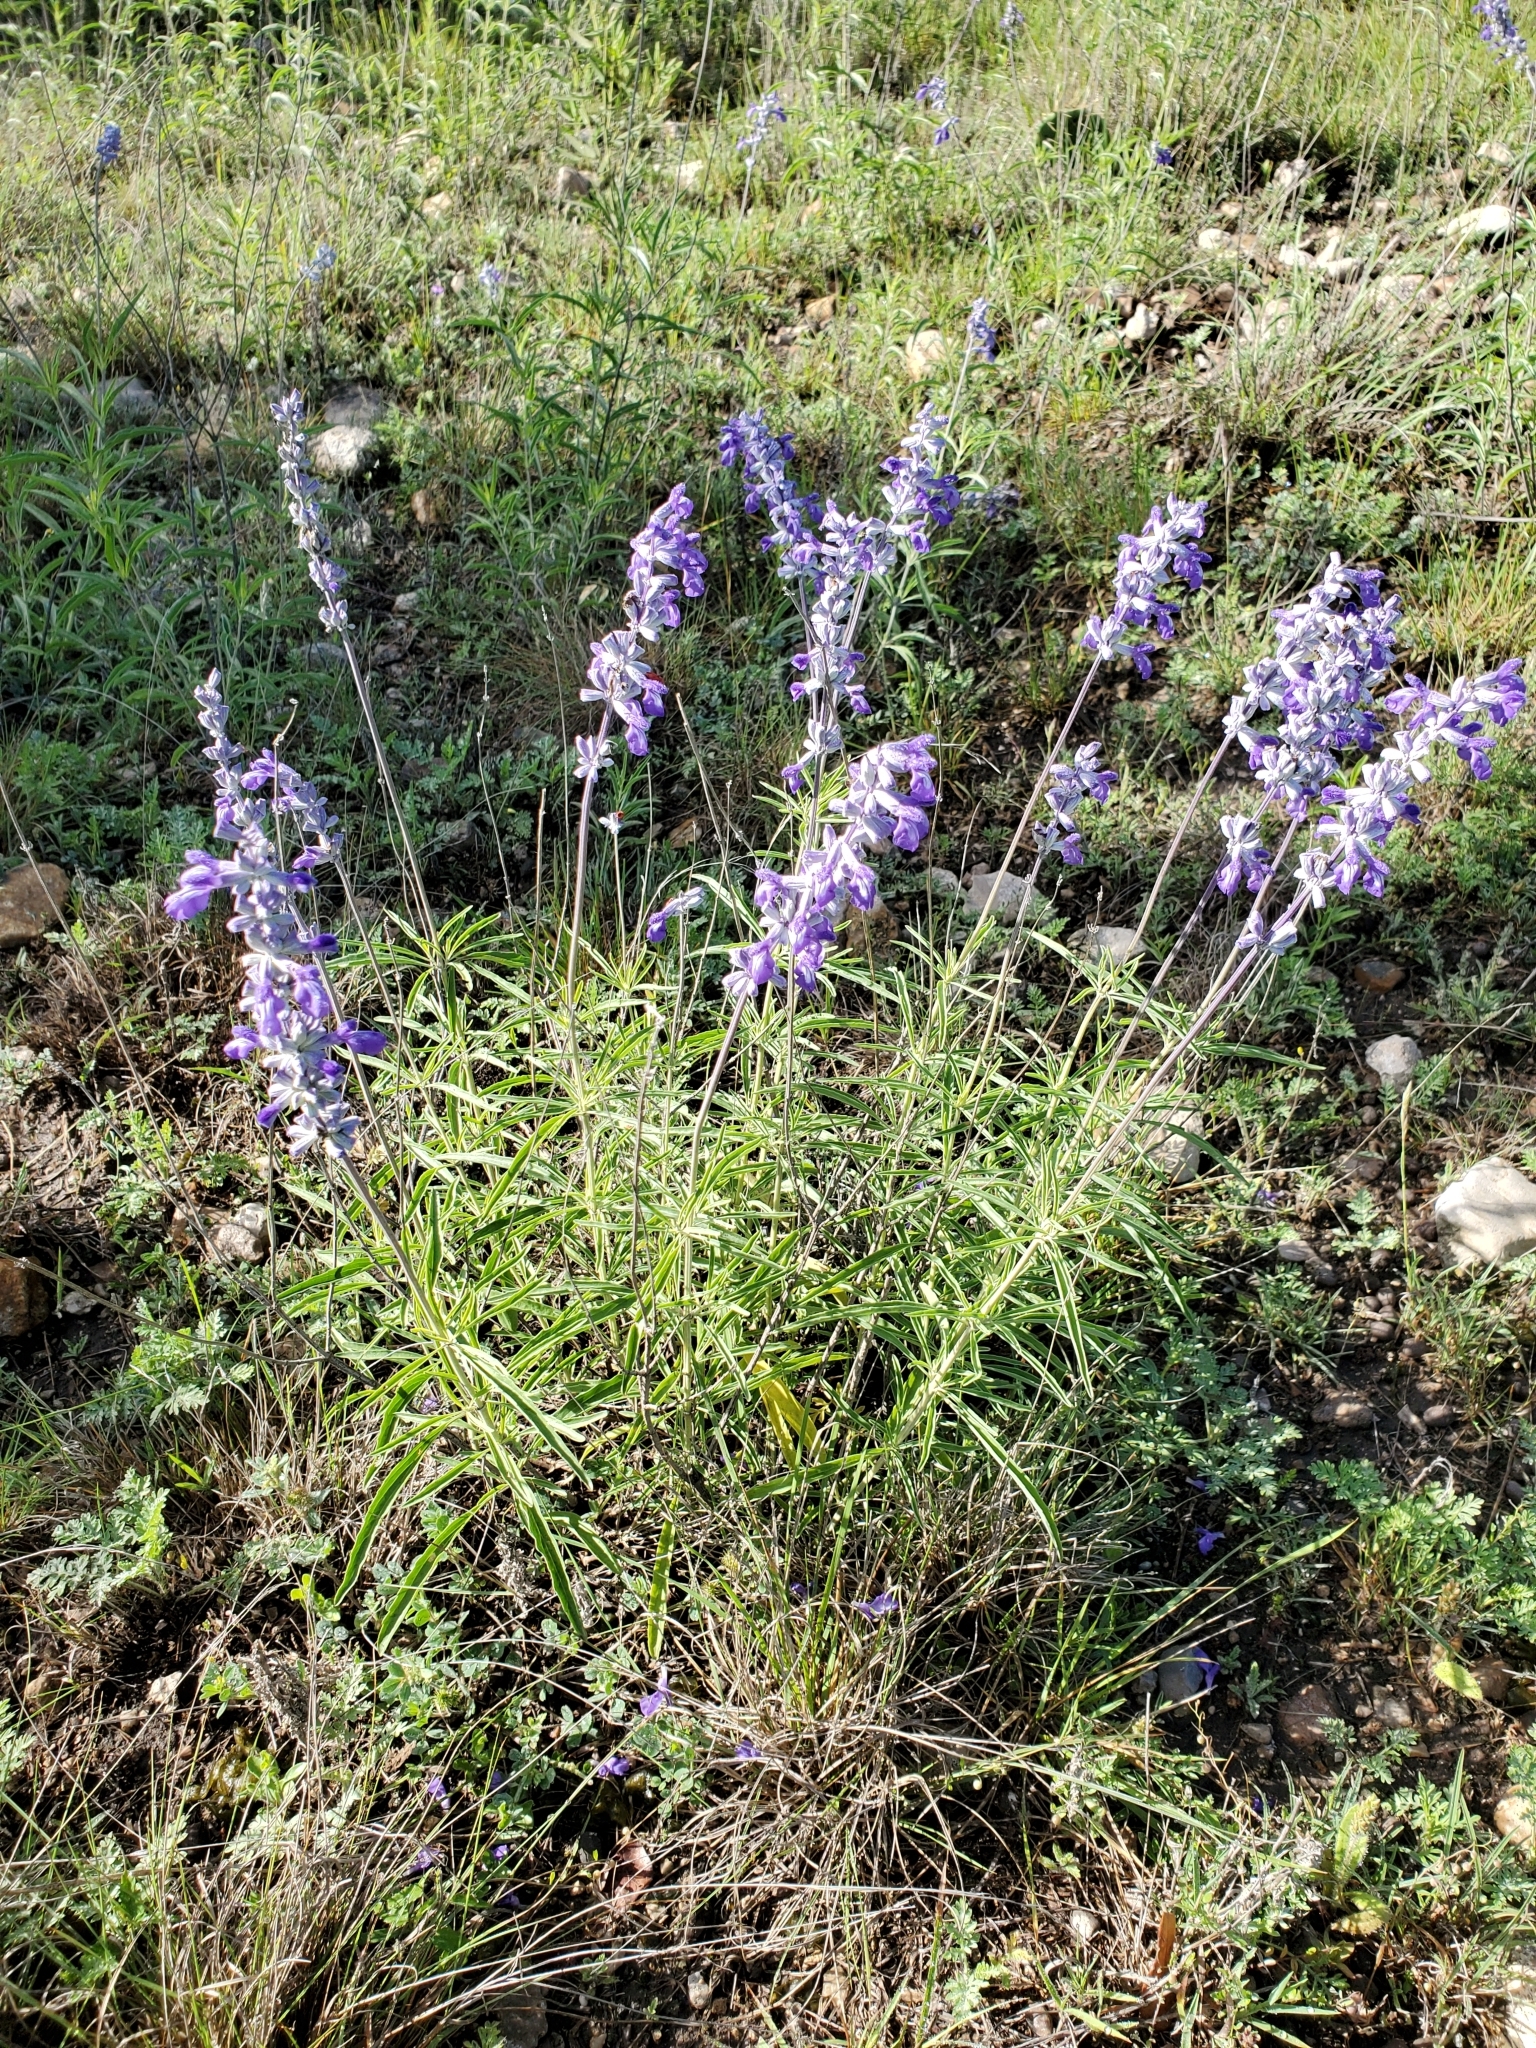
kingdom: Plantae
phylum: Tracheophyta
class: Magnoliopsida
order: Lamiales
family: Lamiaceae
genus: Salvia
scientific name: Salvia farinacea
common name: Mealy sage
